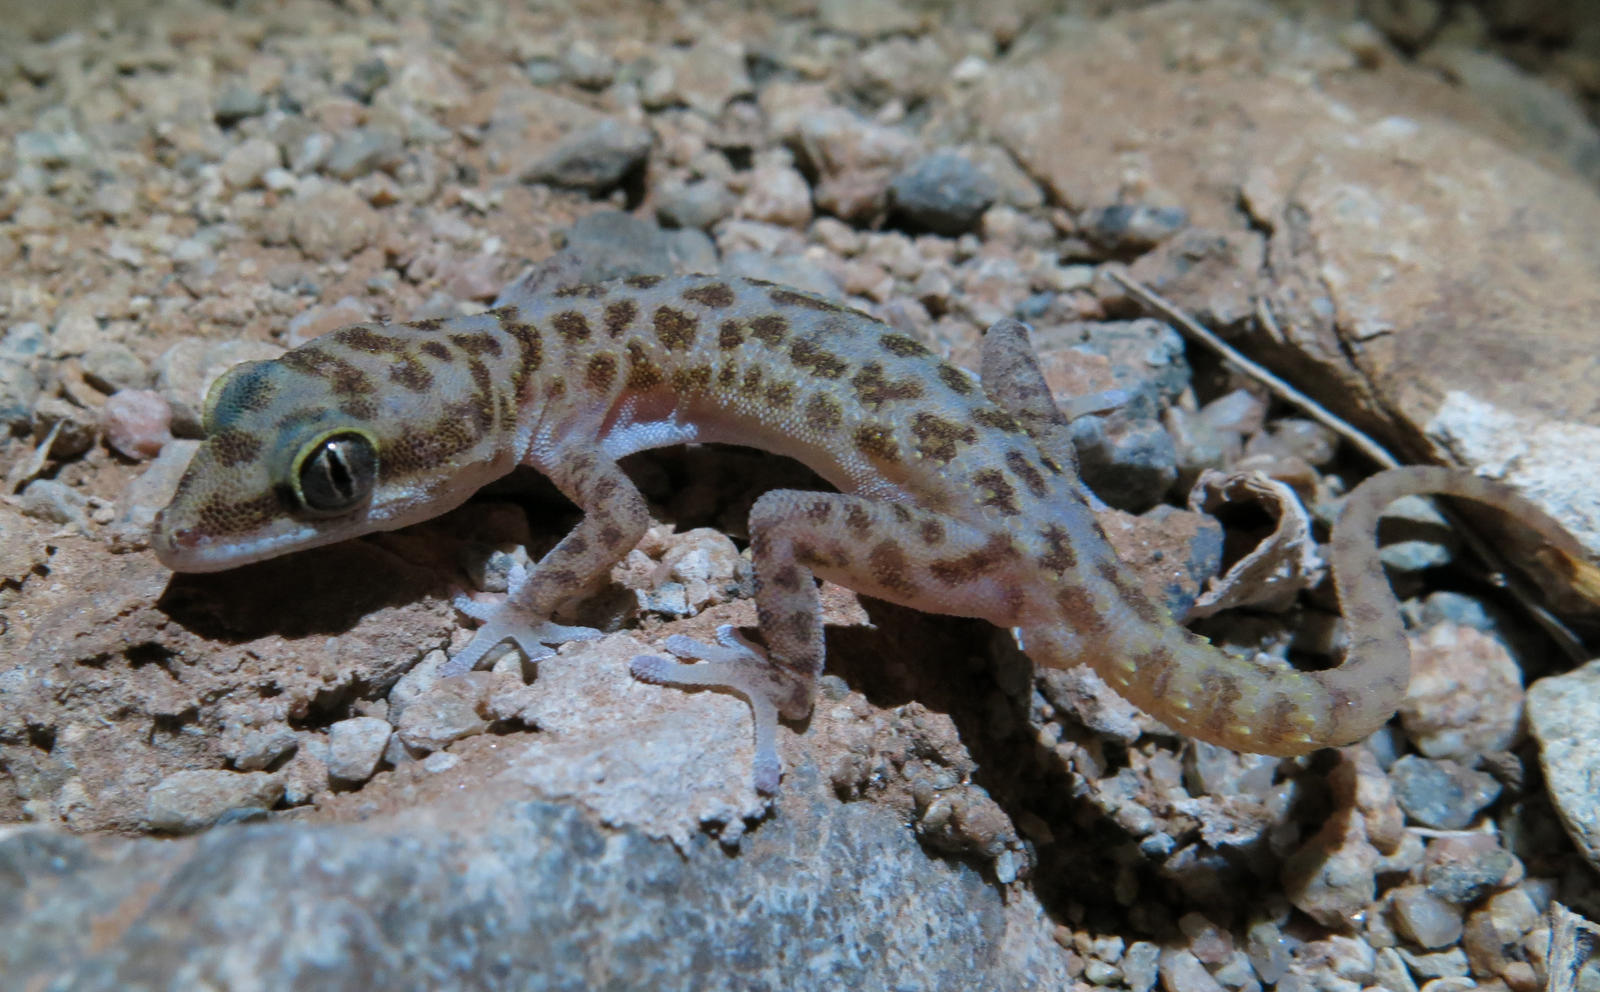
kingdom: Animalia
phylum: Chordata
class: Squamata
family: Gekkonidae
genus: Pachydactylus
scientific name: Pachydactylus carinatus
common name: Richtersveld gecko
